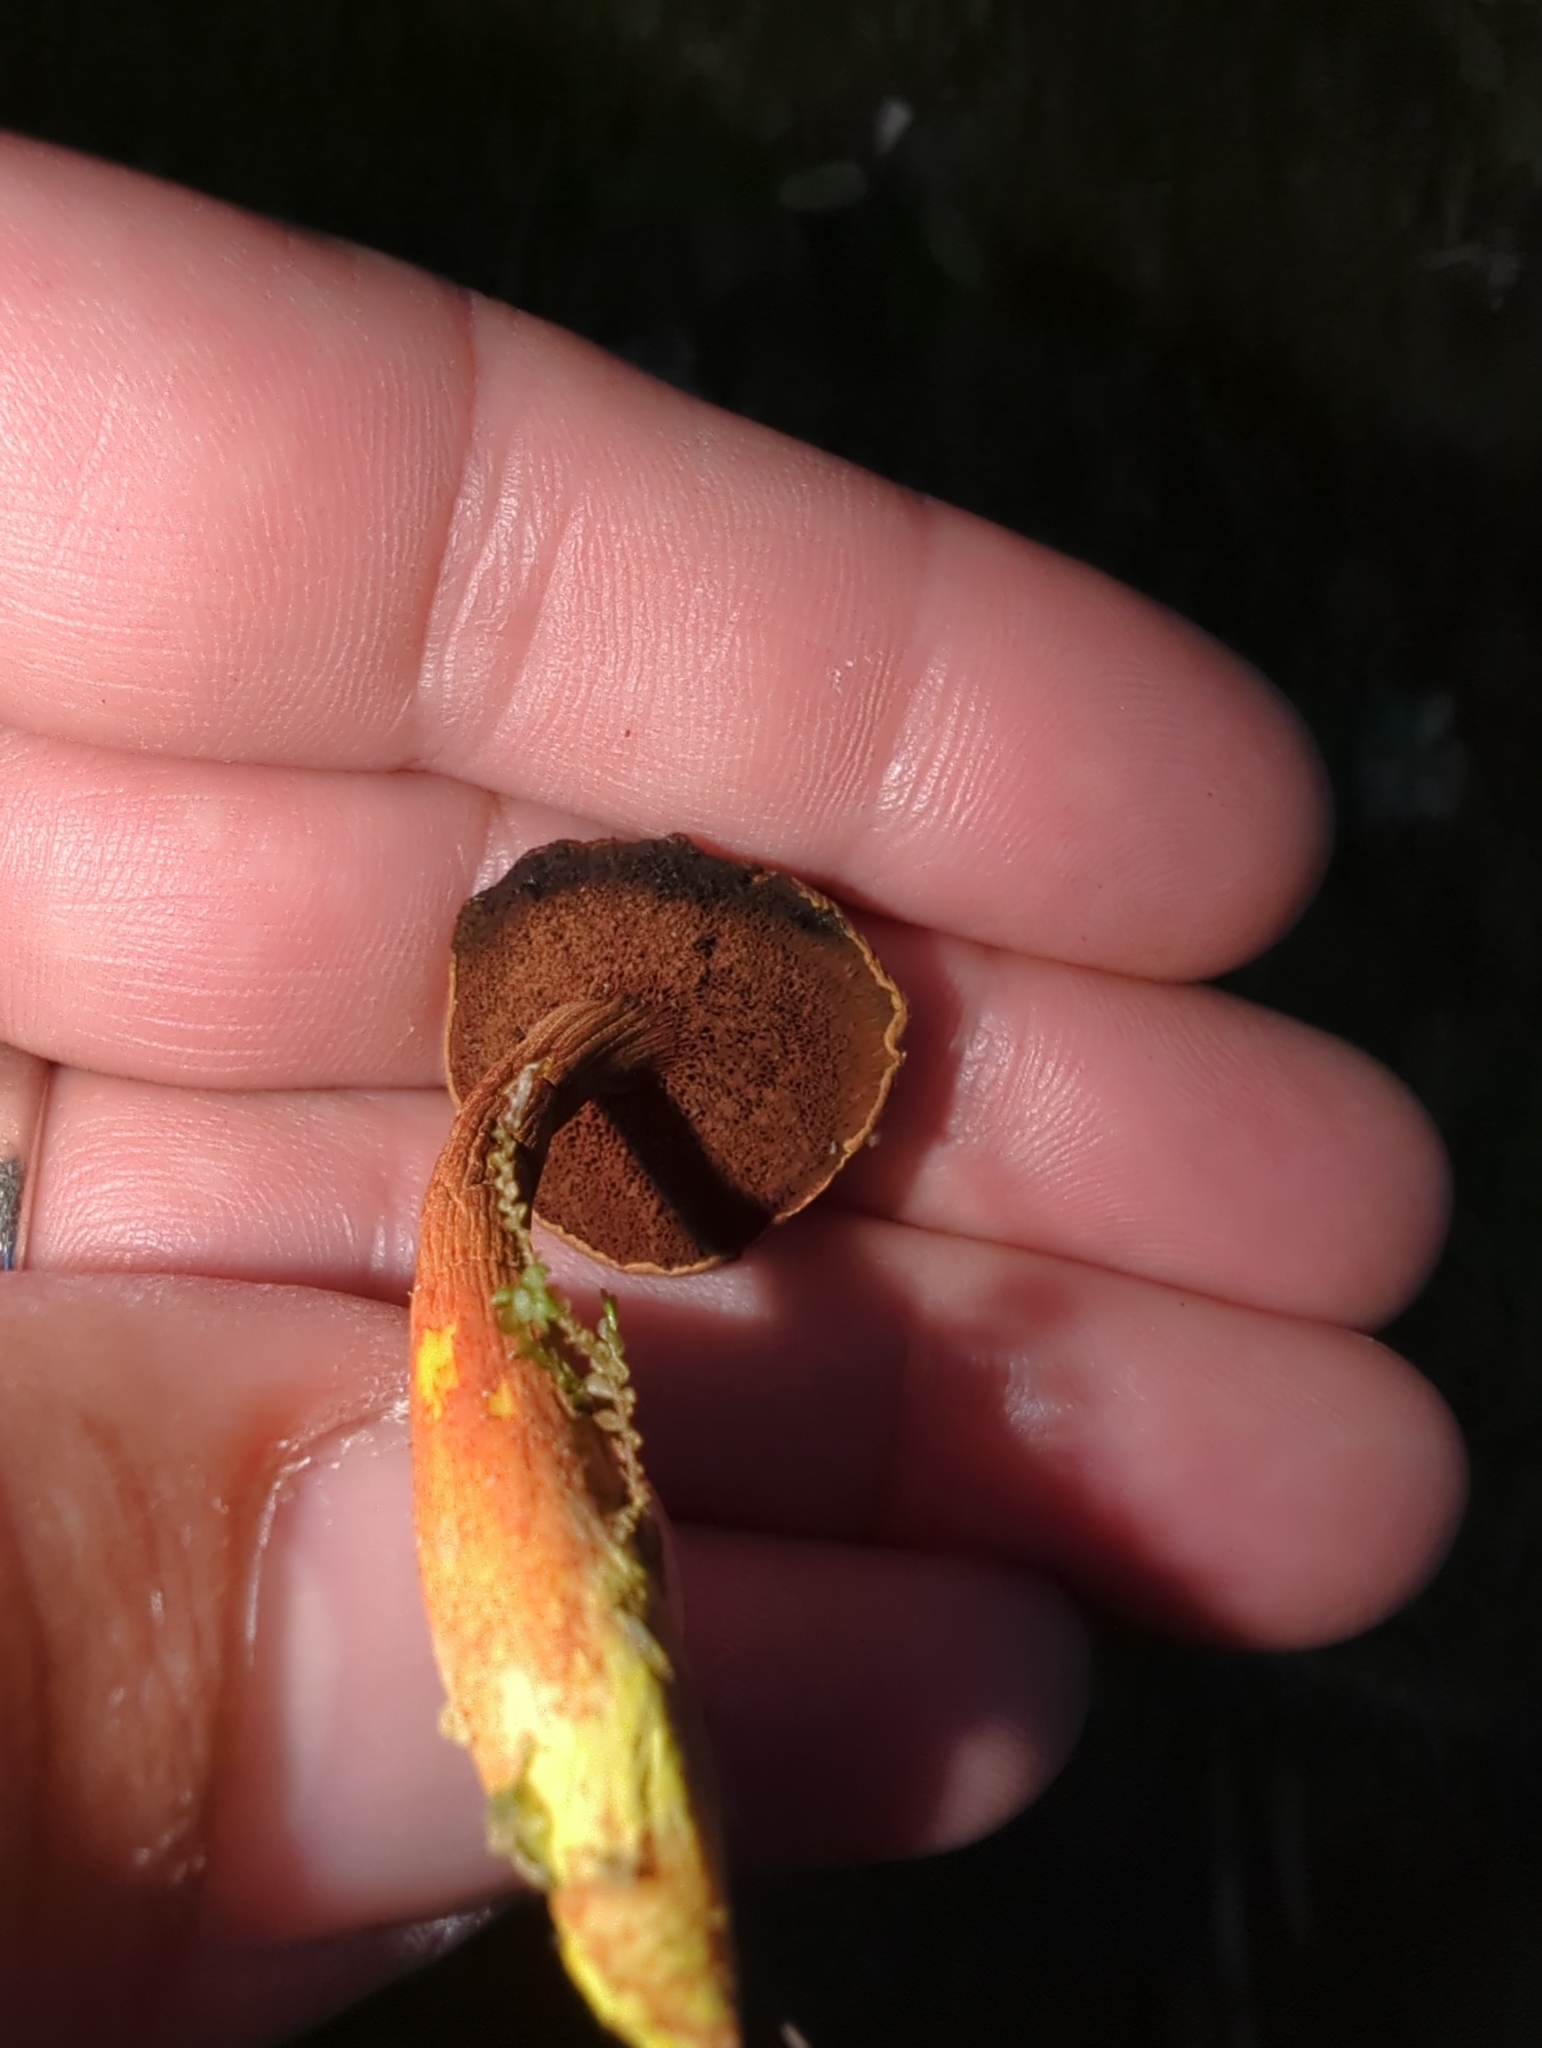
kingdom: Fungi
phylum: Basidiomycota
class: Agaricomycetes
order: Boletales
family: Boletaceae
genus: Chalciporus
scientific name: Chalciporus piperatus
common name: Peppery bolete
